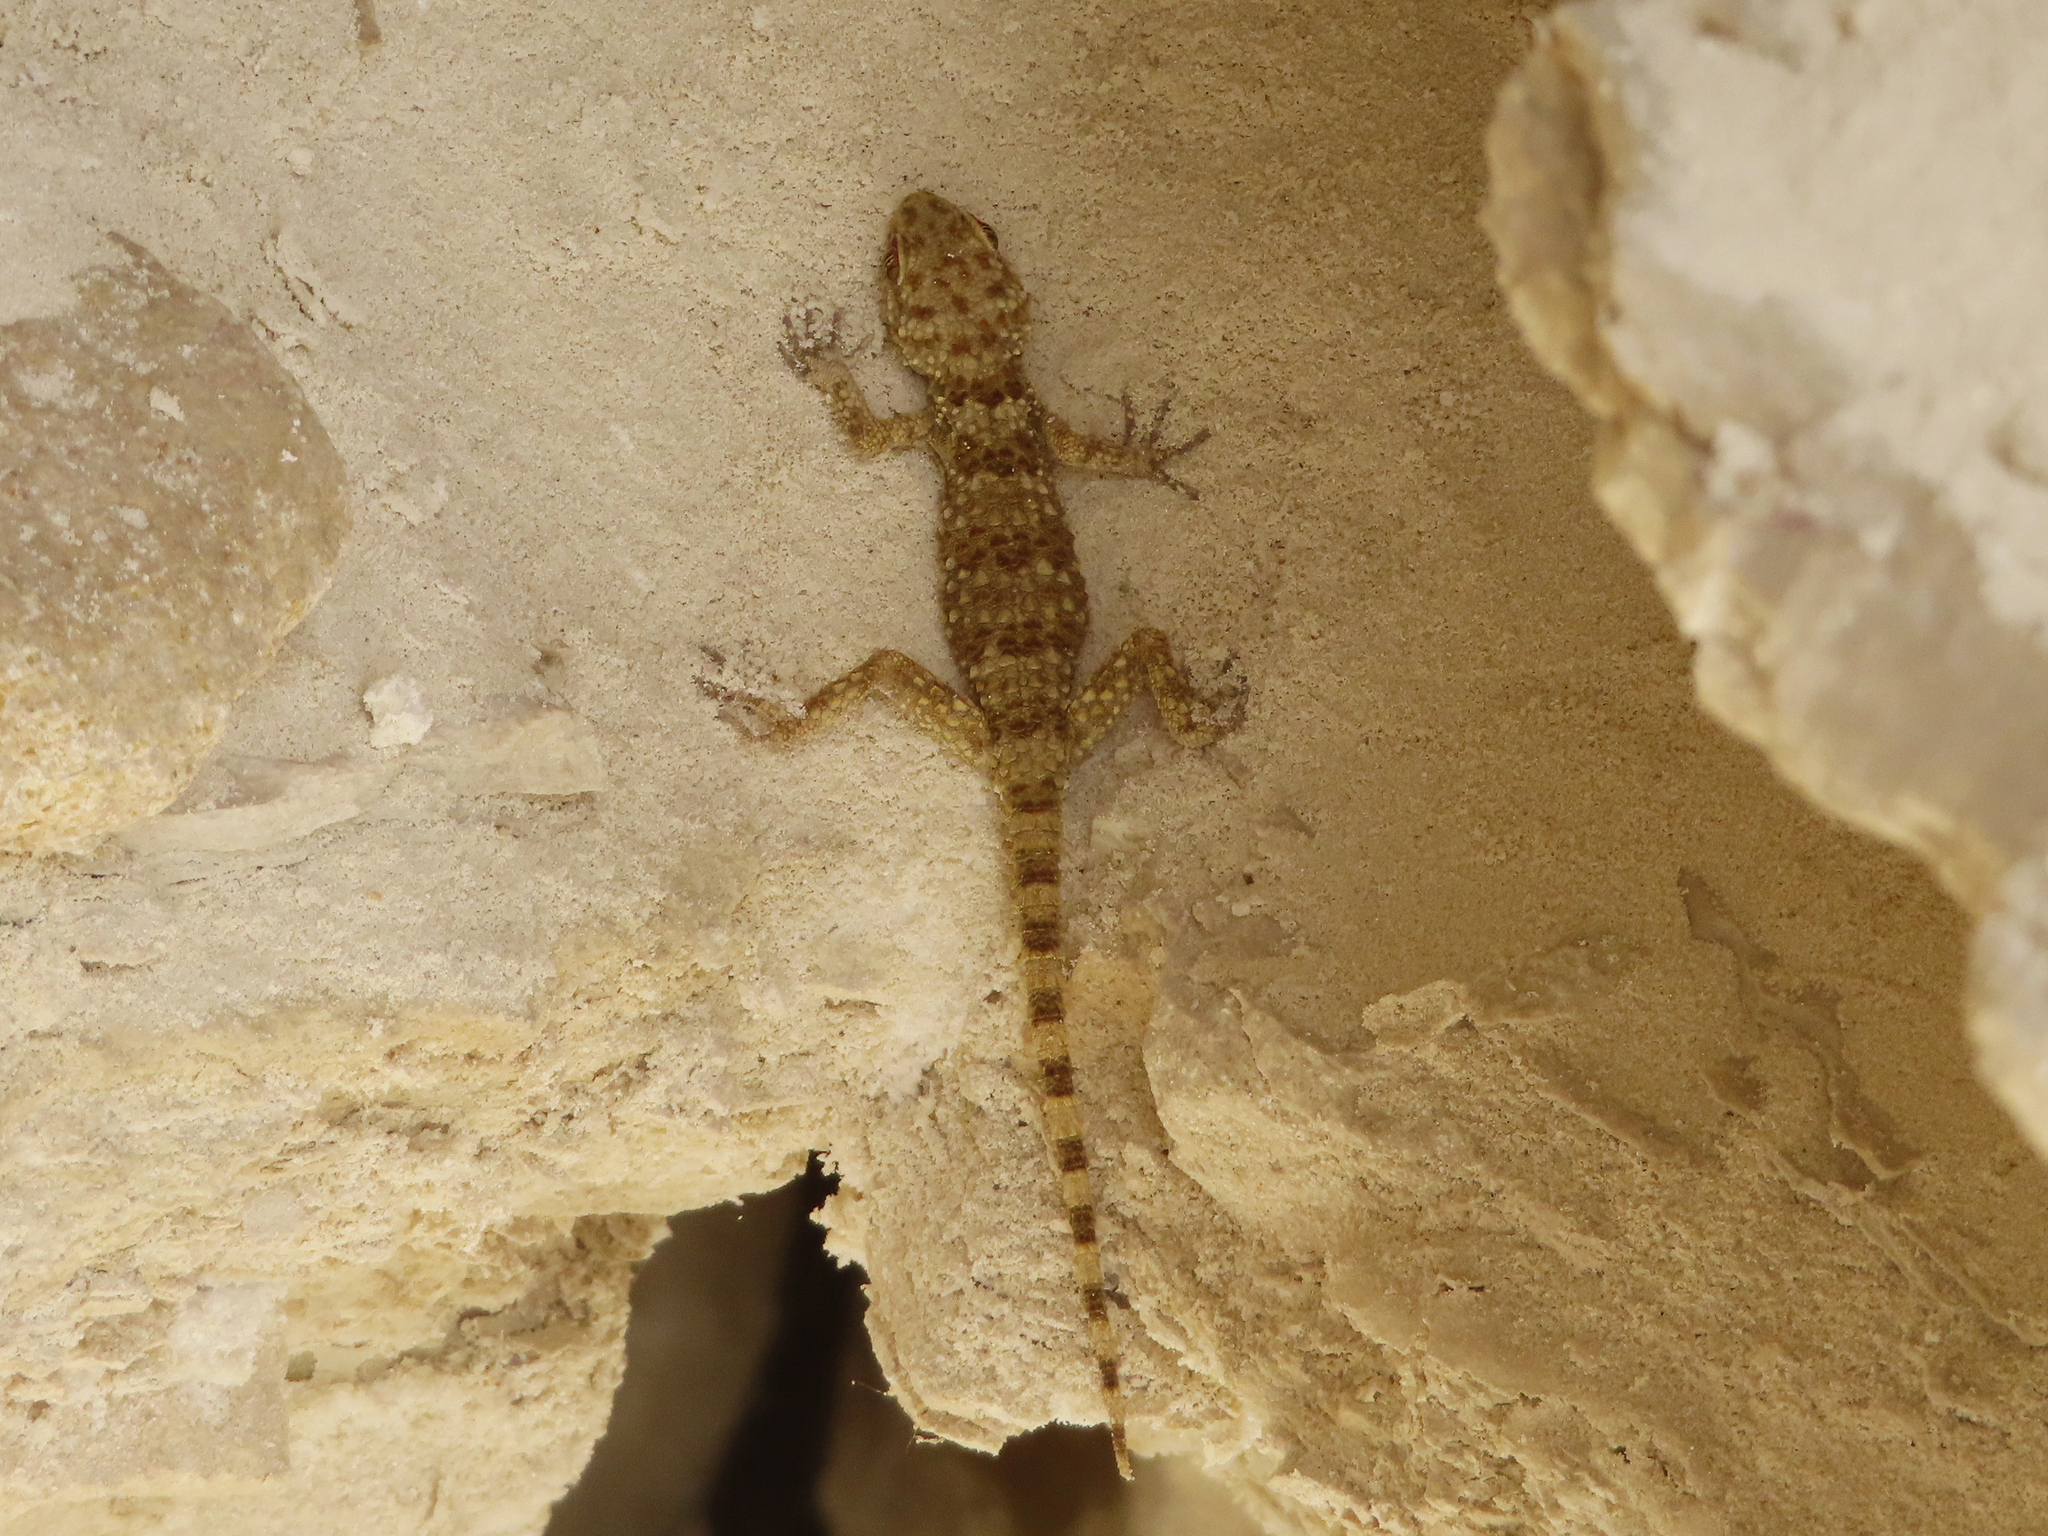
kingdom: Animalia
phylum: Chordata
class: Squamata
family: Gekkonidae
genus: Tenuidactylus
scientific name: Tenuidactylus caspius
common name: Caspian bent-toed gecko
